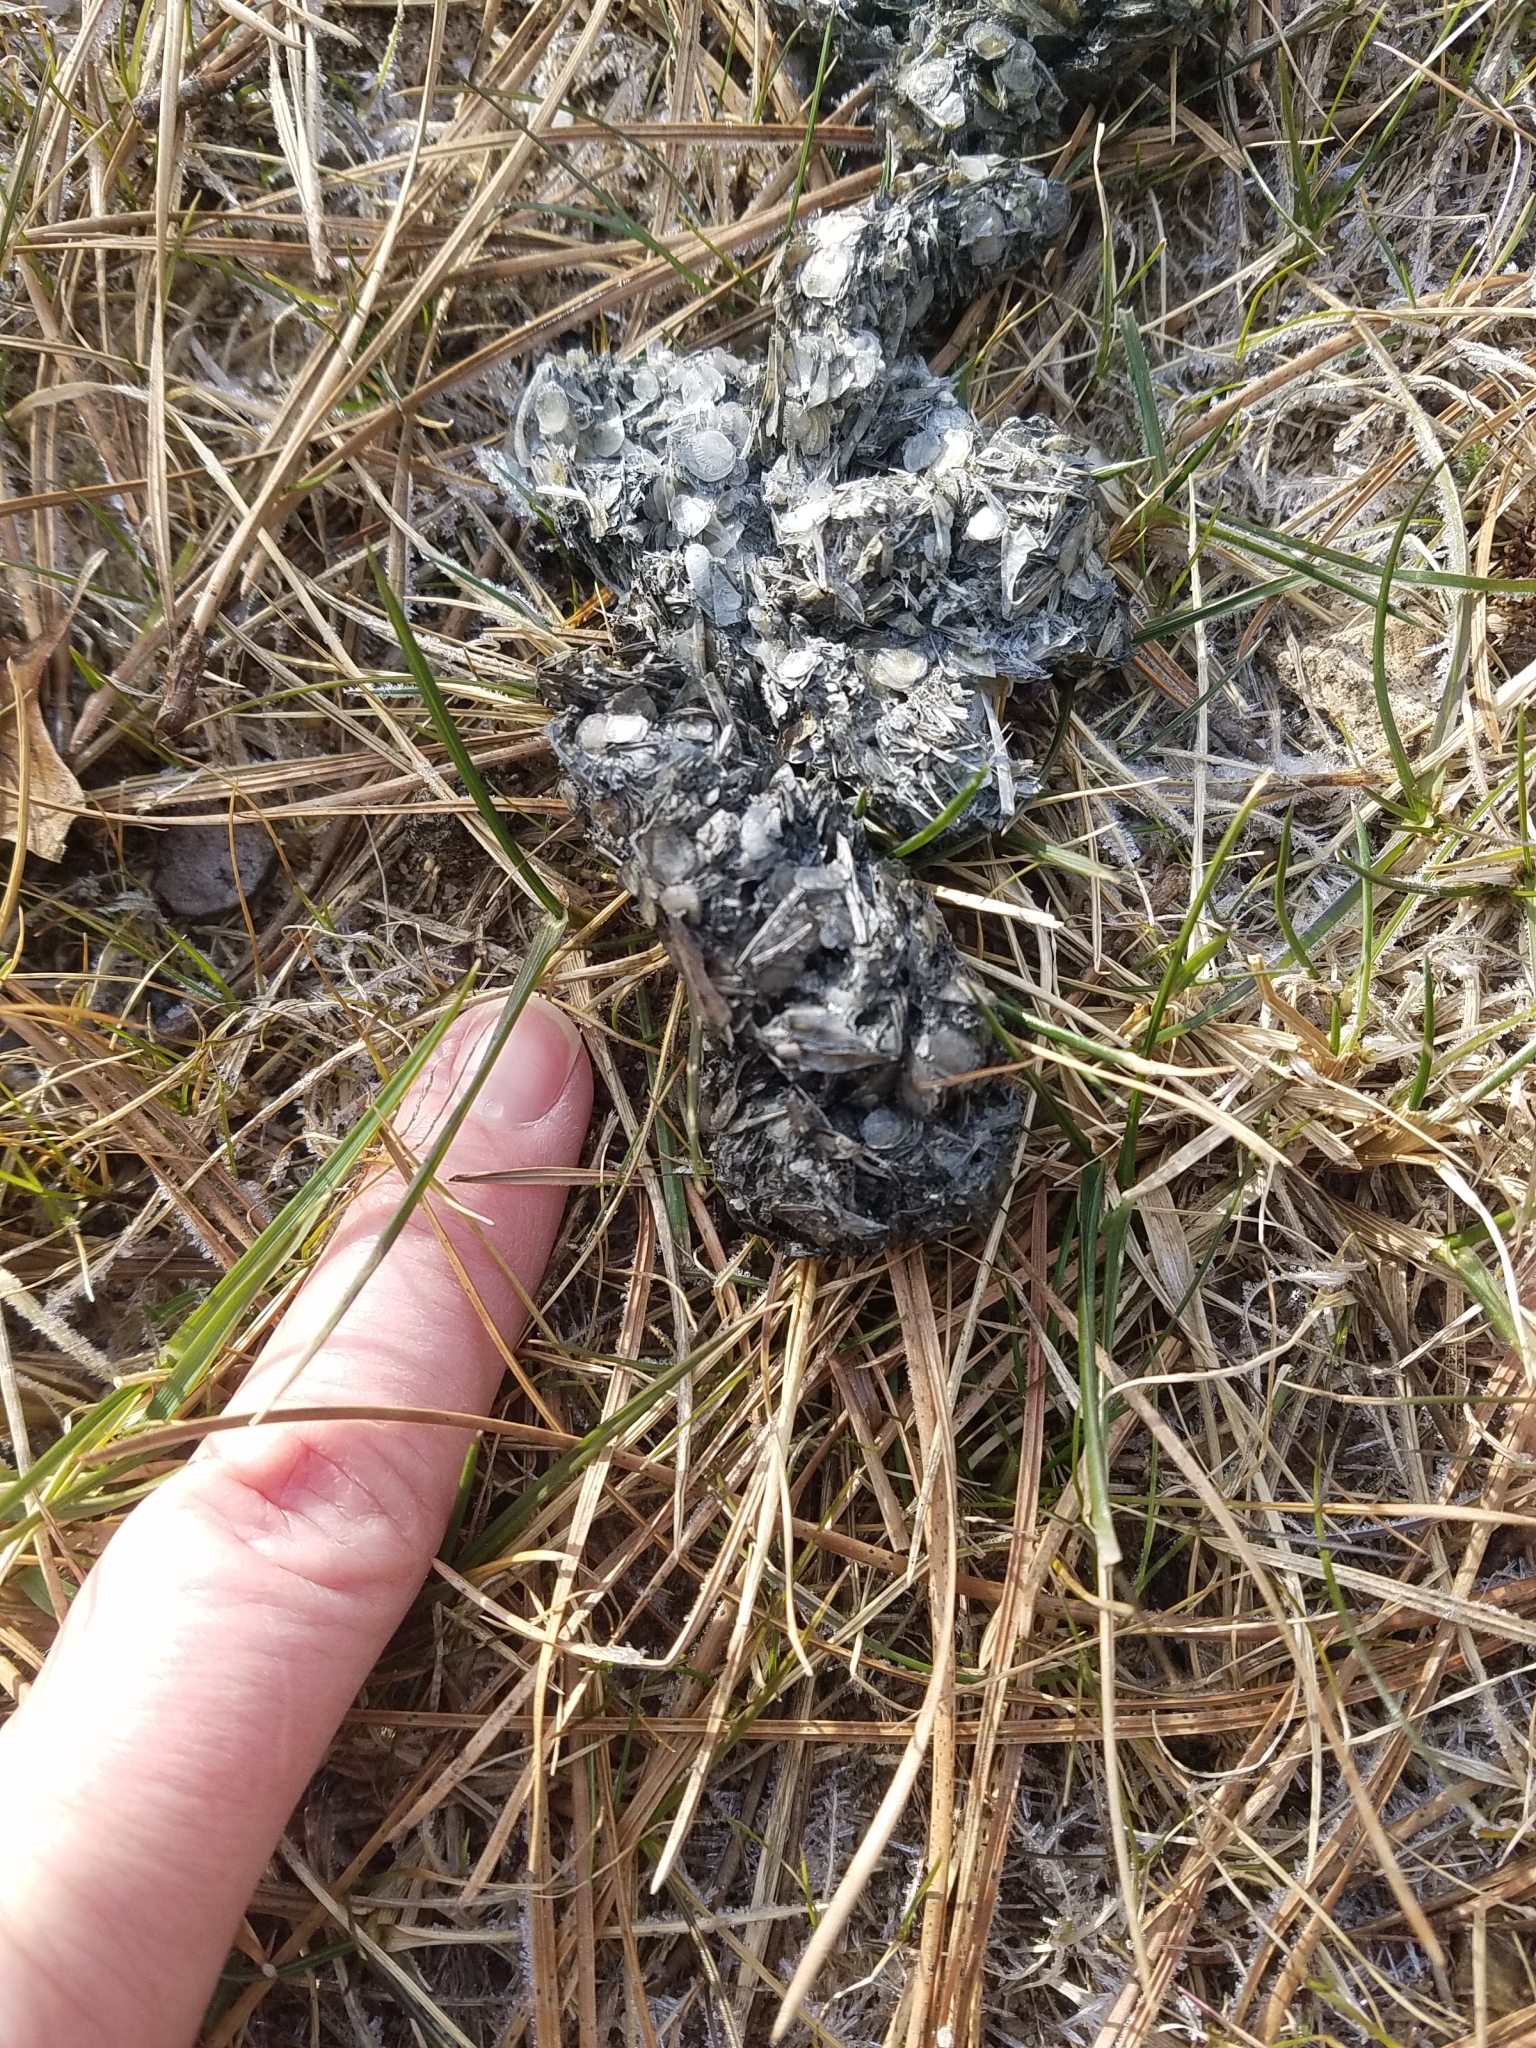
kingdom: Animalia
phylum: Chordata
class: Mammalia
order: Carnivora
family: Mustelidae
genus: Lontra
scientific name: Lontra canadensis
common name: North american river otter
